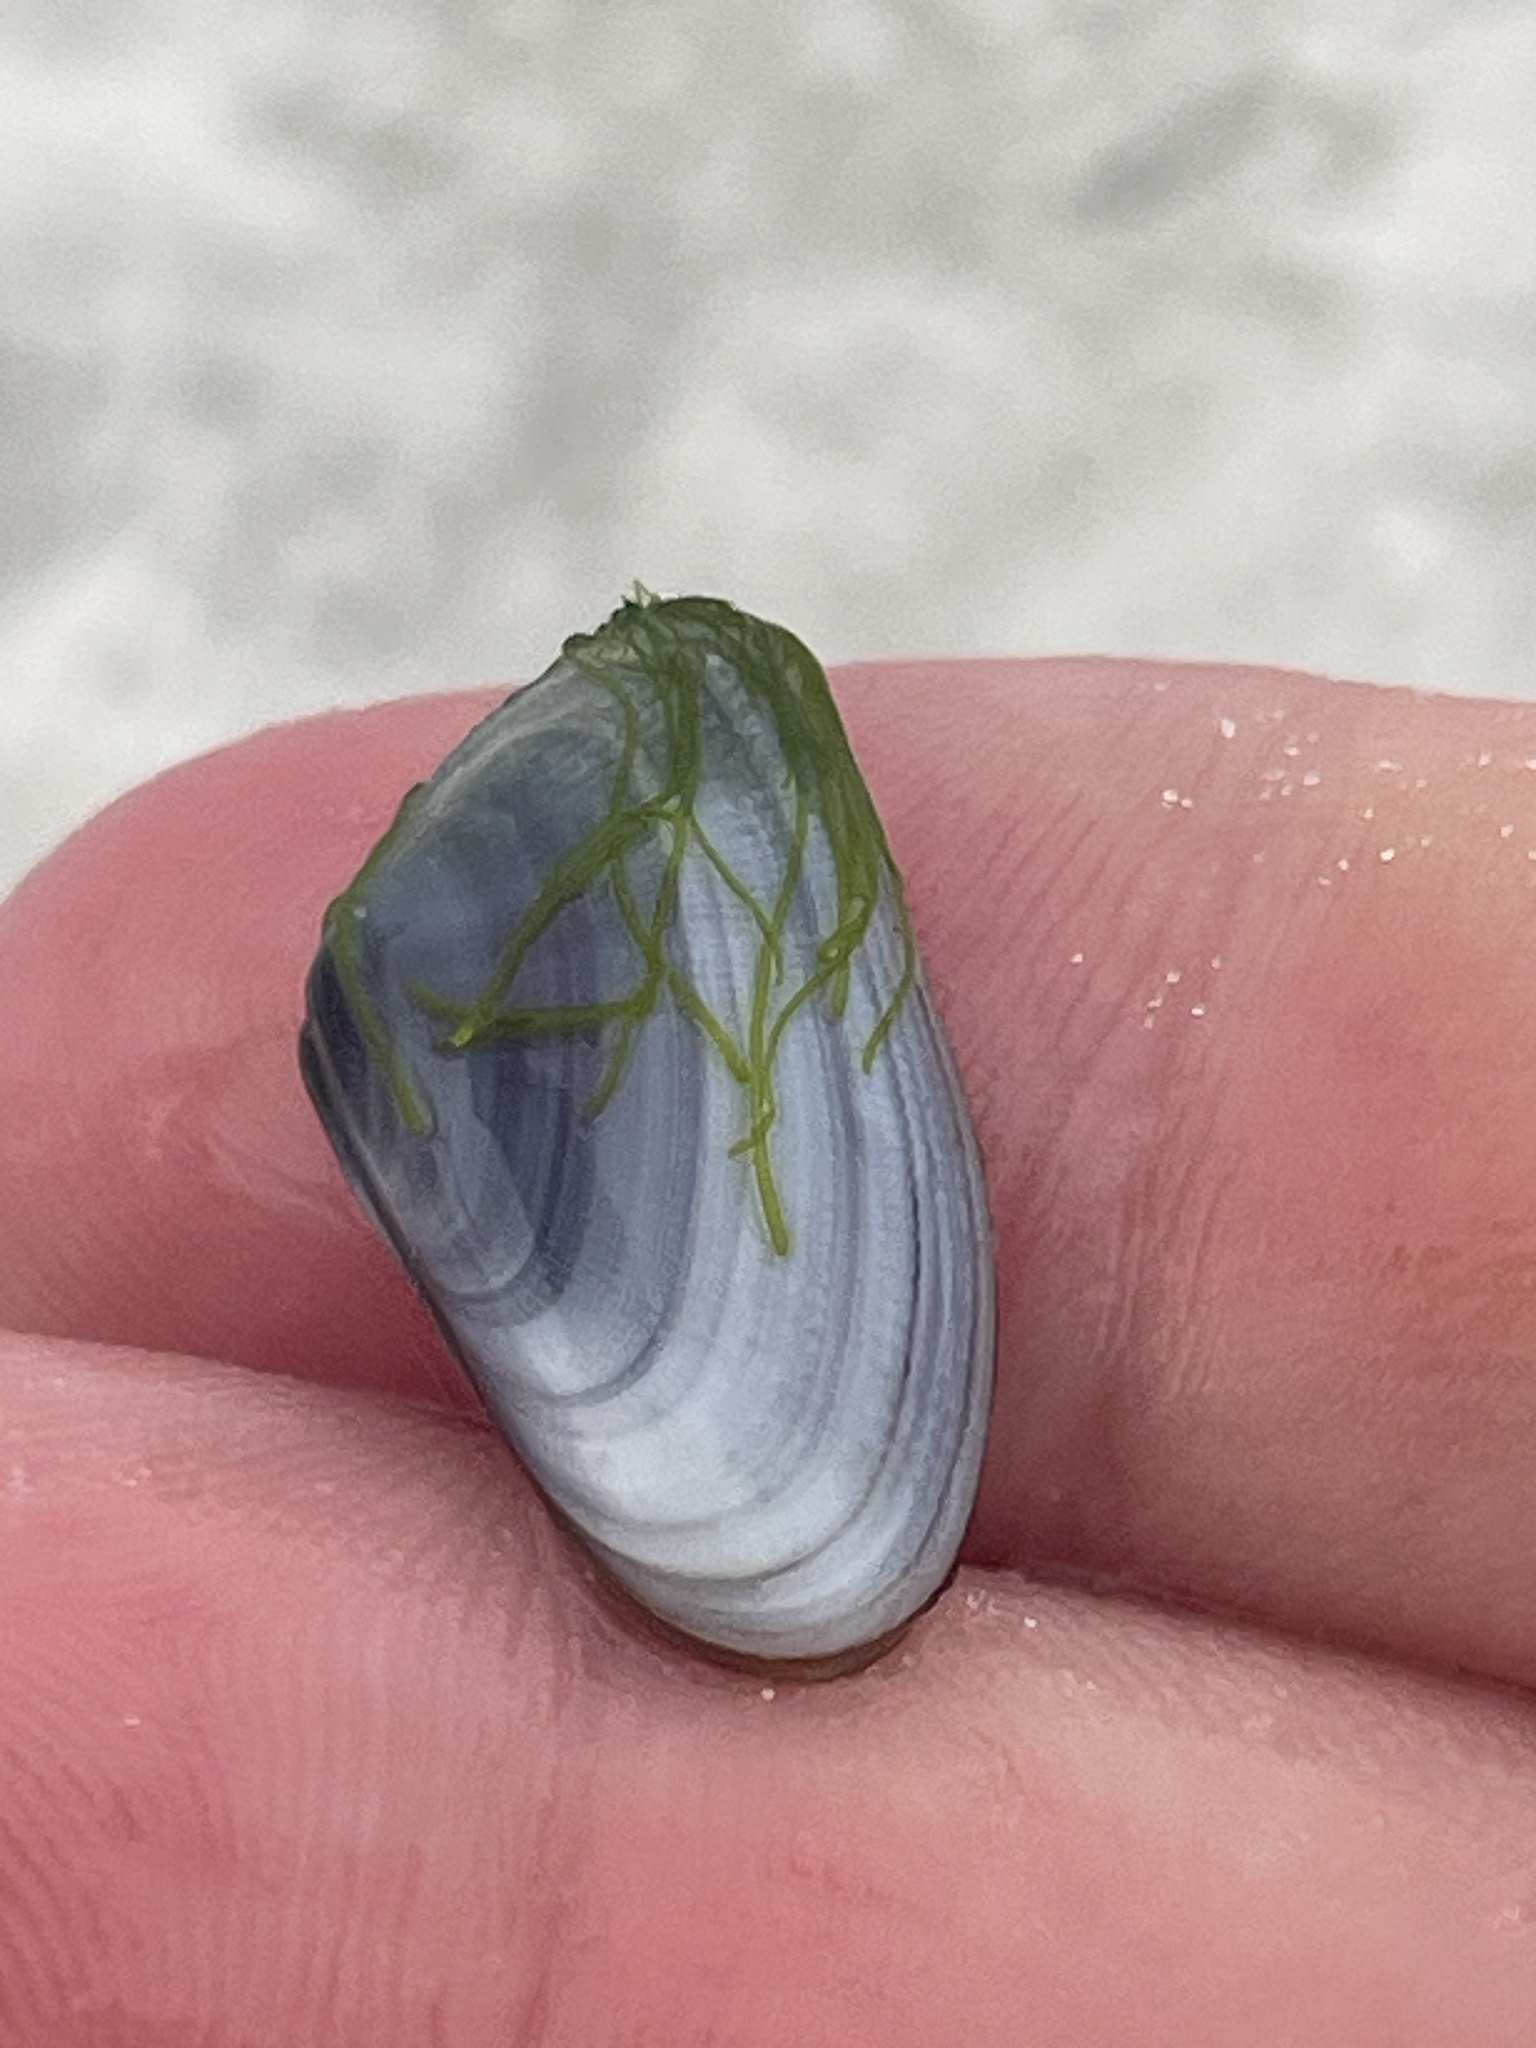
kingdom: Animalia
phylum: Mollusca
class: Bivalvia
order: Cardiida
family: Donacidae
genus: Donax
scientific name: Donax variabilis
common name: Butterfly shell
